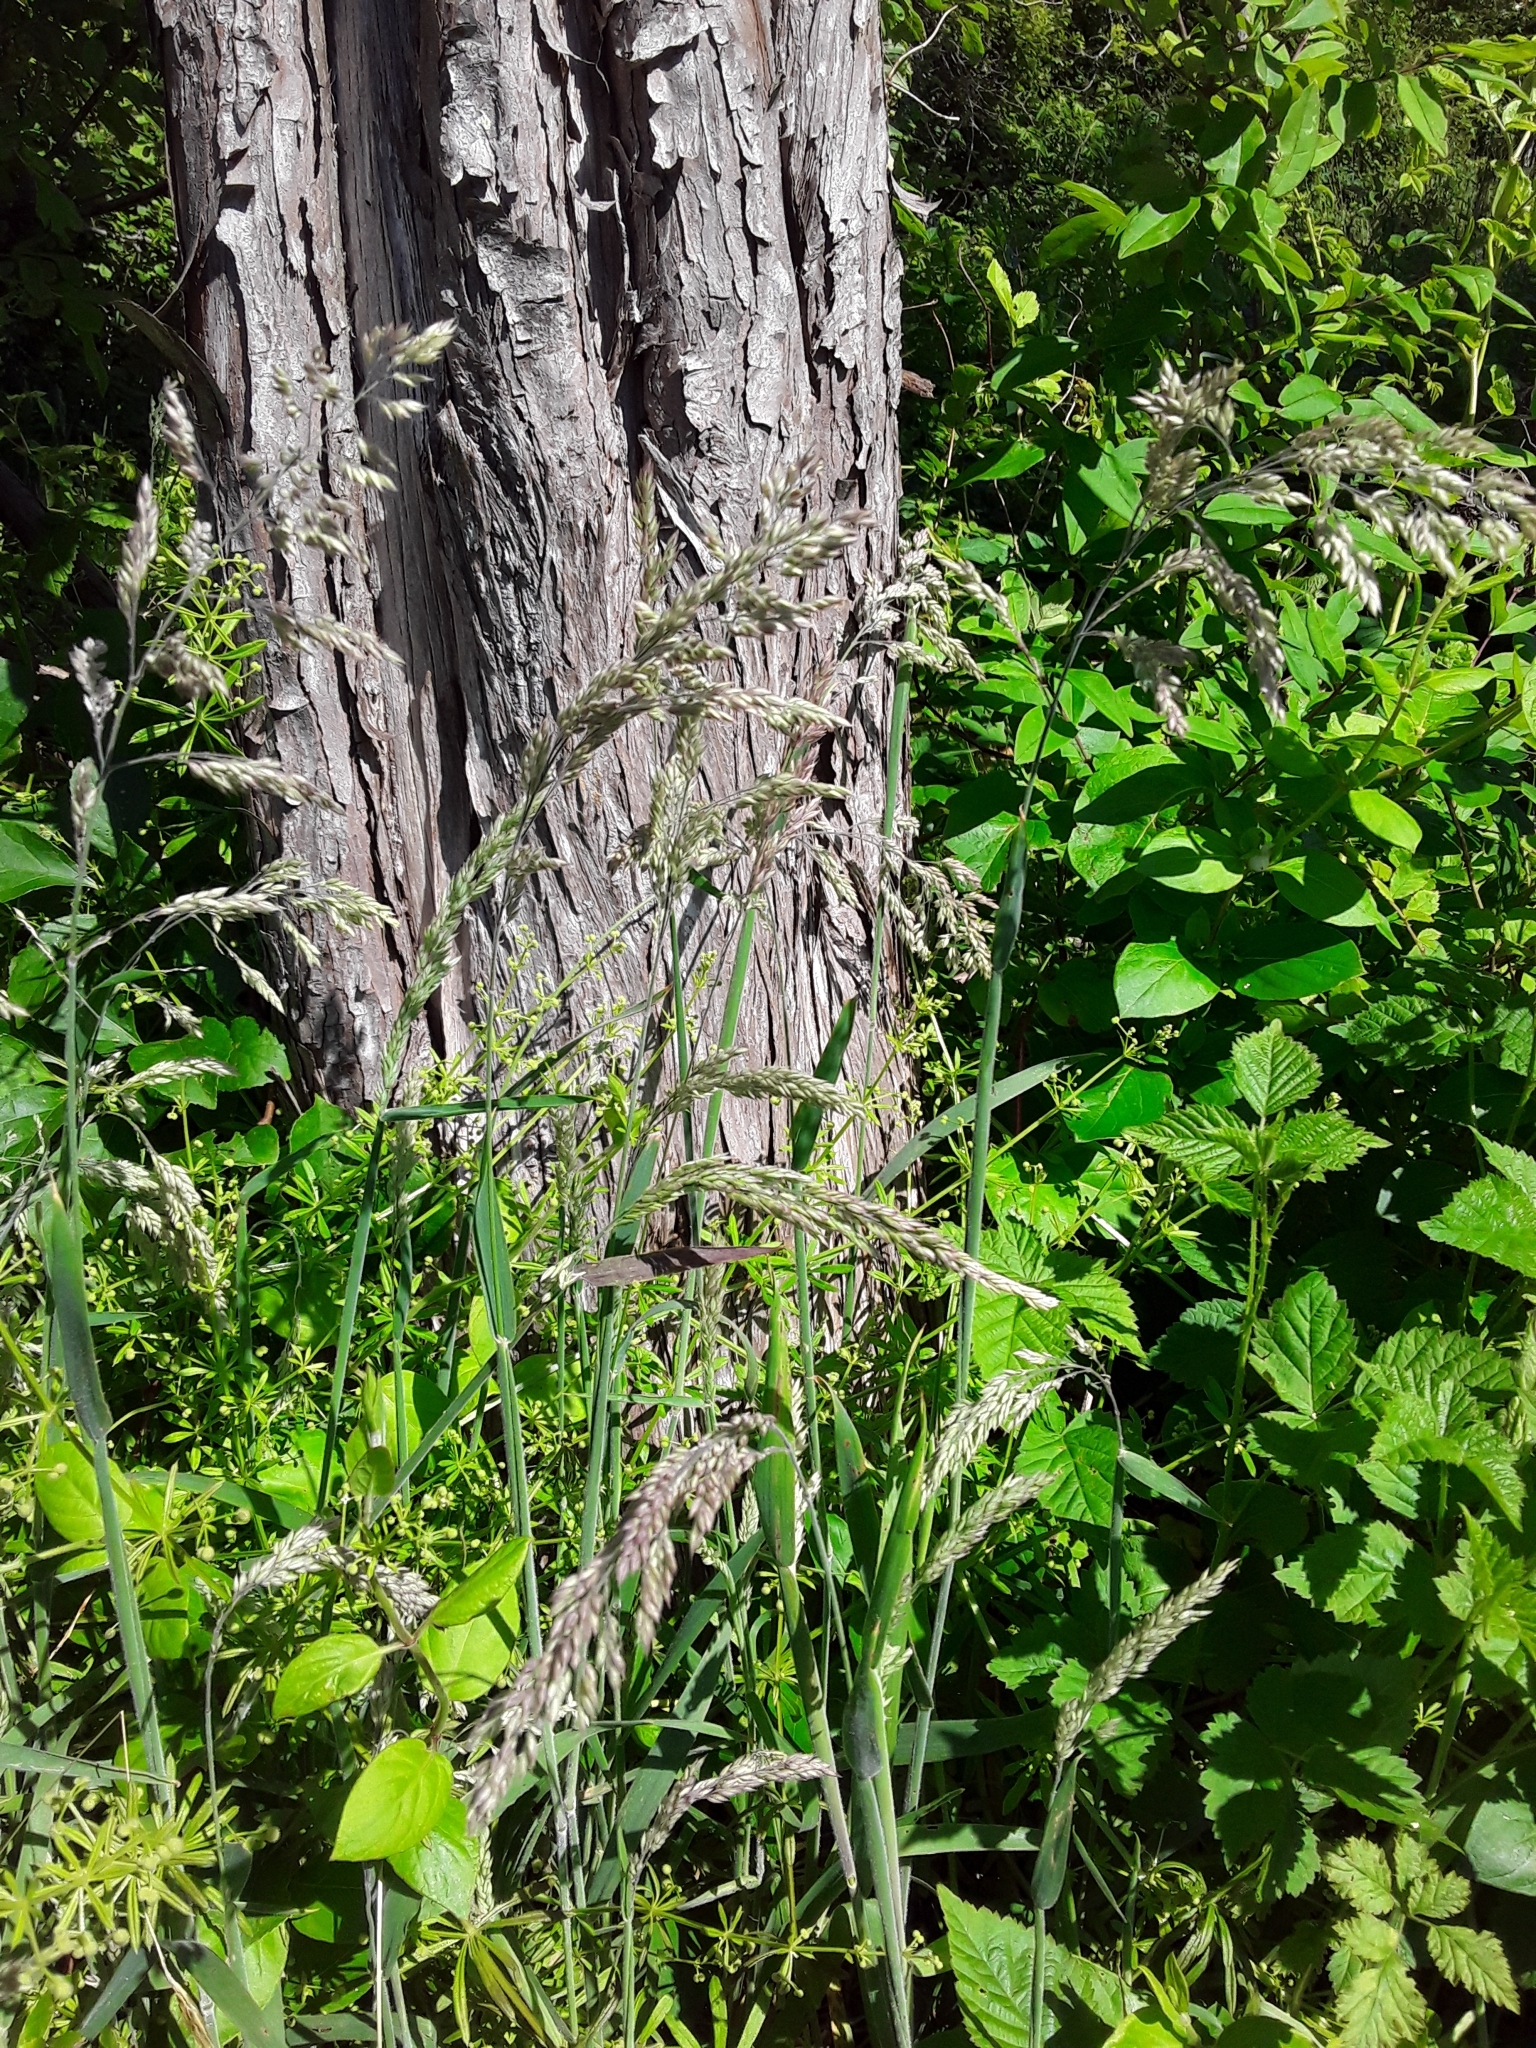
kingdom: Plantae
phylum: Tracheophyta
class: Liliopsida
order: Poales
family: Poaceae
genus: Holcus
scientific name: Holcus lanatus
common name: Yorkshire-fog
